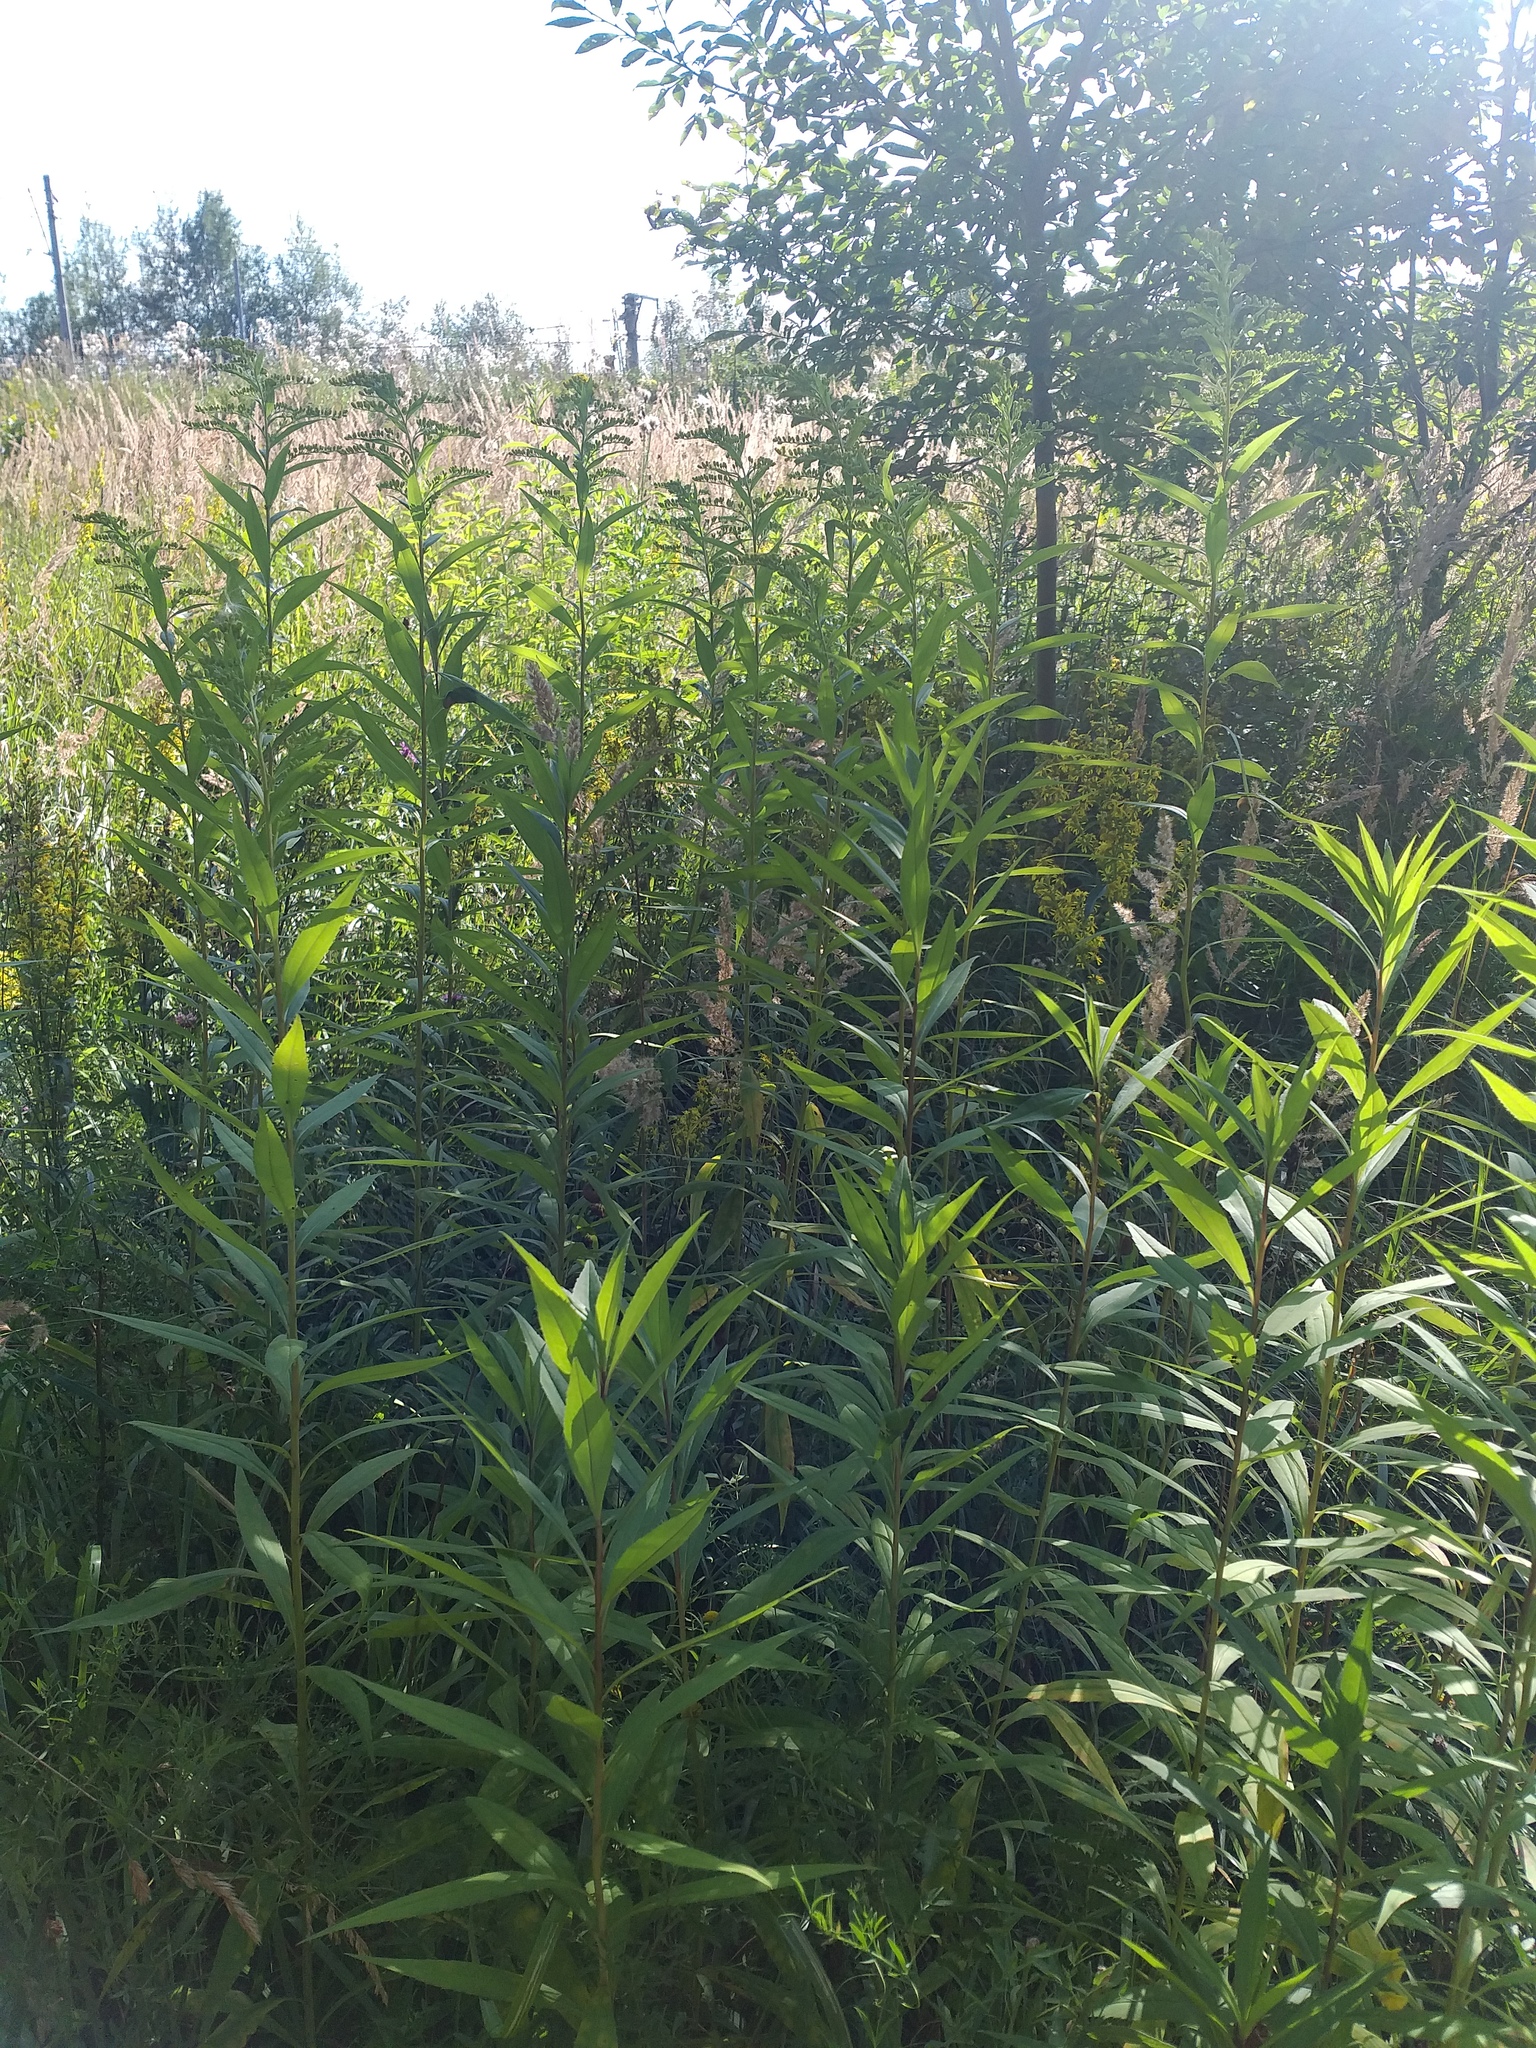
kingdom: Plantae
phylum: Tracheophyta
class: Magnoliopsida
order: Asterales
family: Asteraceae
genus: Solidago
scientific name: Solidago gigantea
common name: Giant goldenrod
